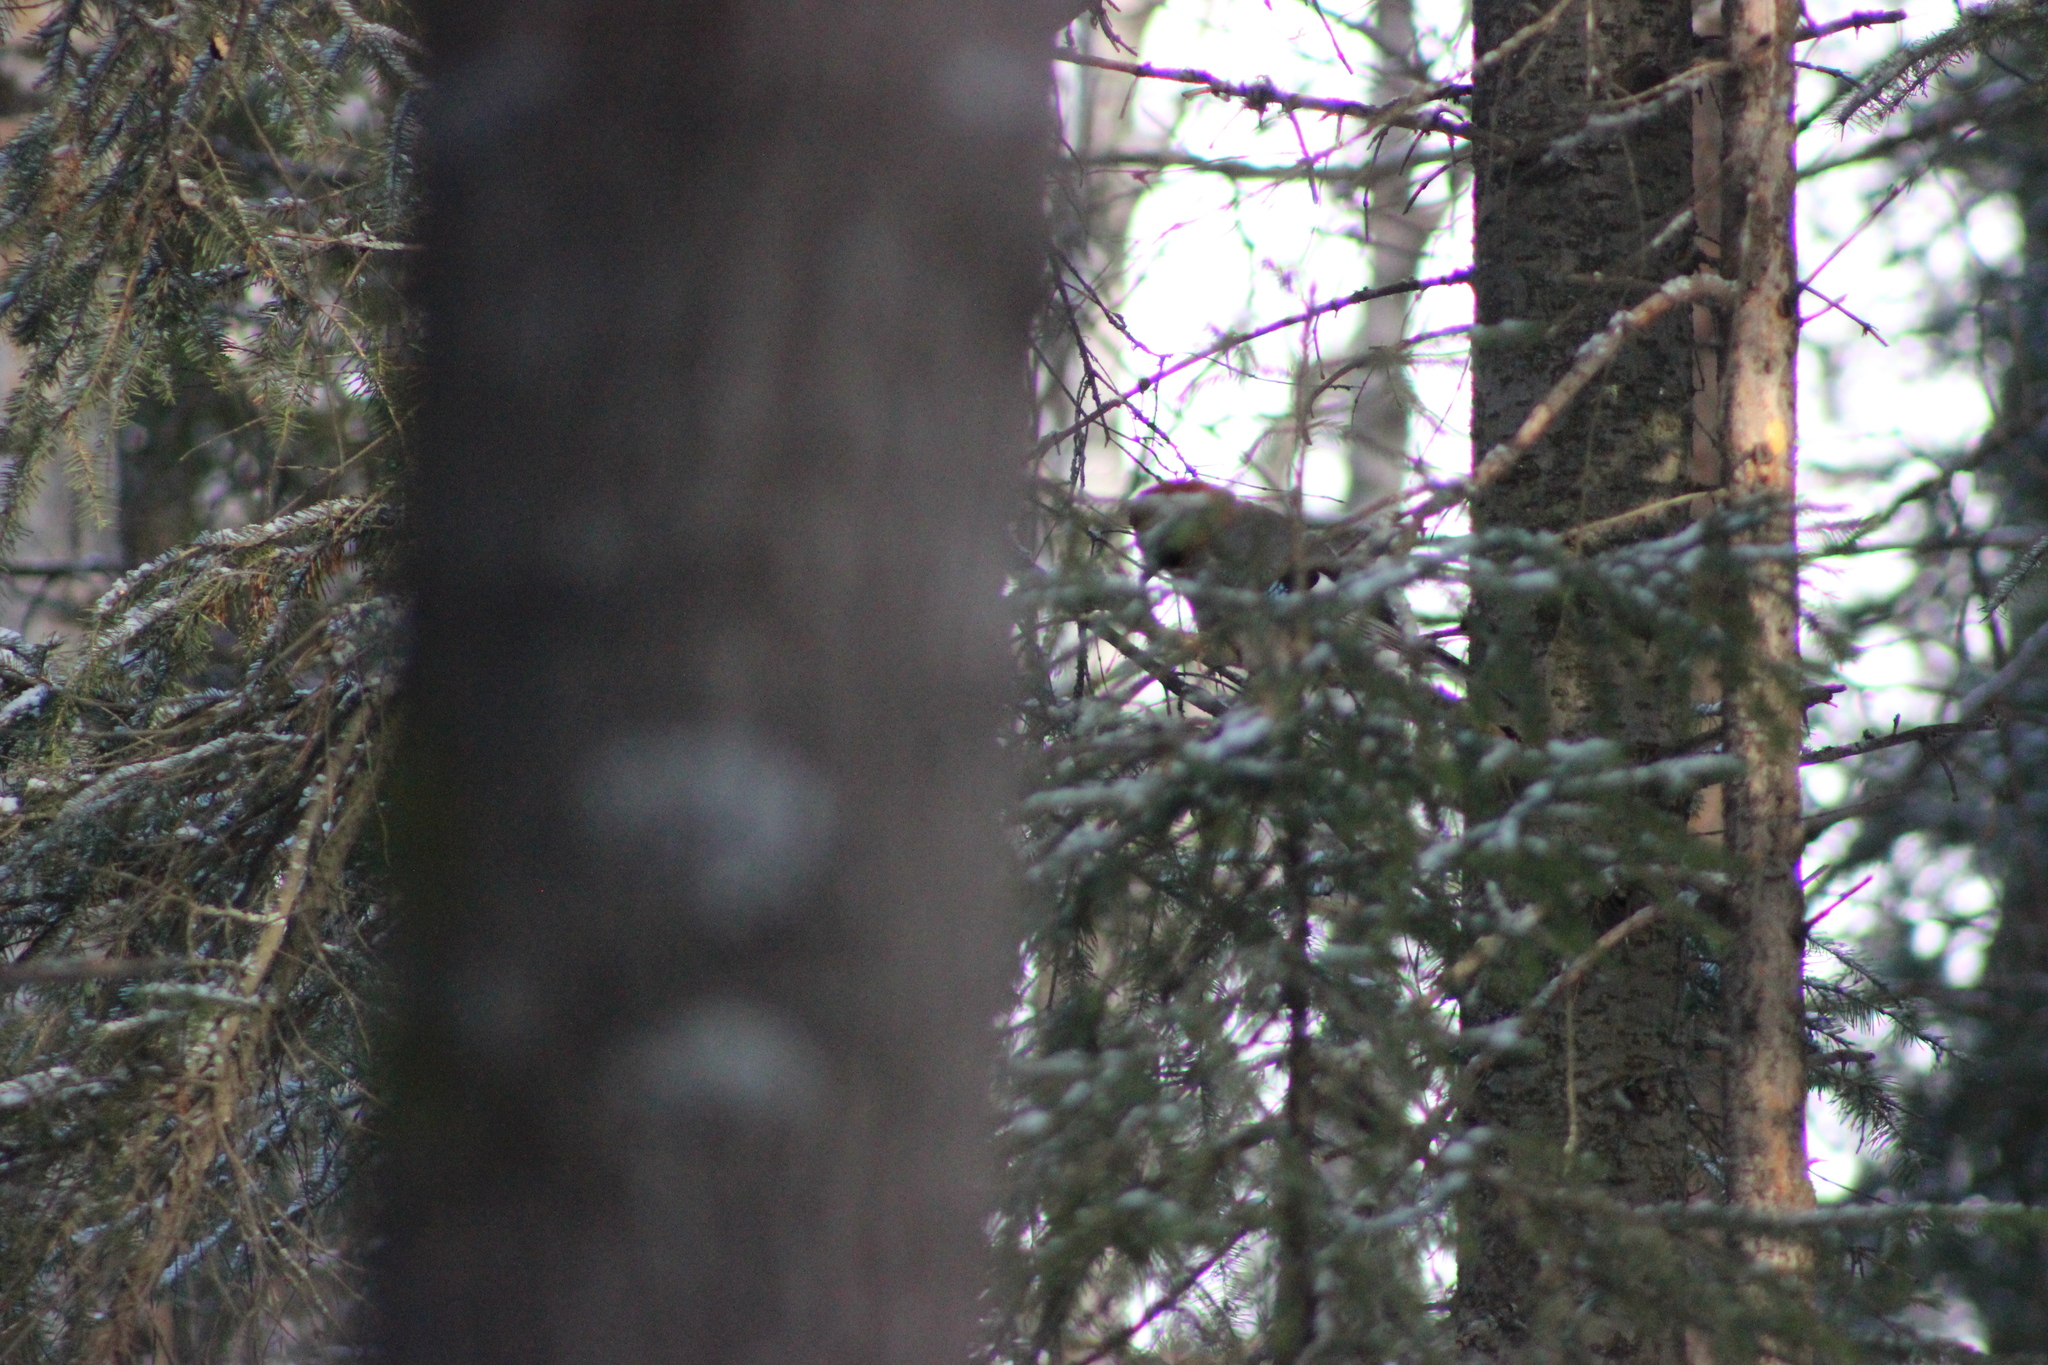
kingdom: Animalia
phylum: Chordata
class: Aves
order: Passeriformes
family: Corvidae
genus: Garrulus
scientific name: Garrulus glandarius
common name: Eurasian jay
